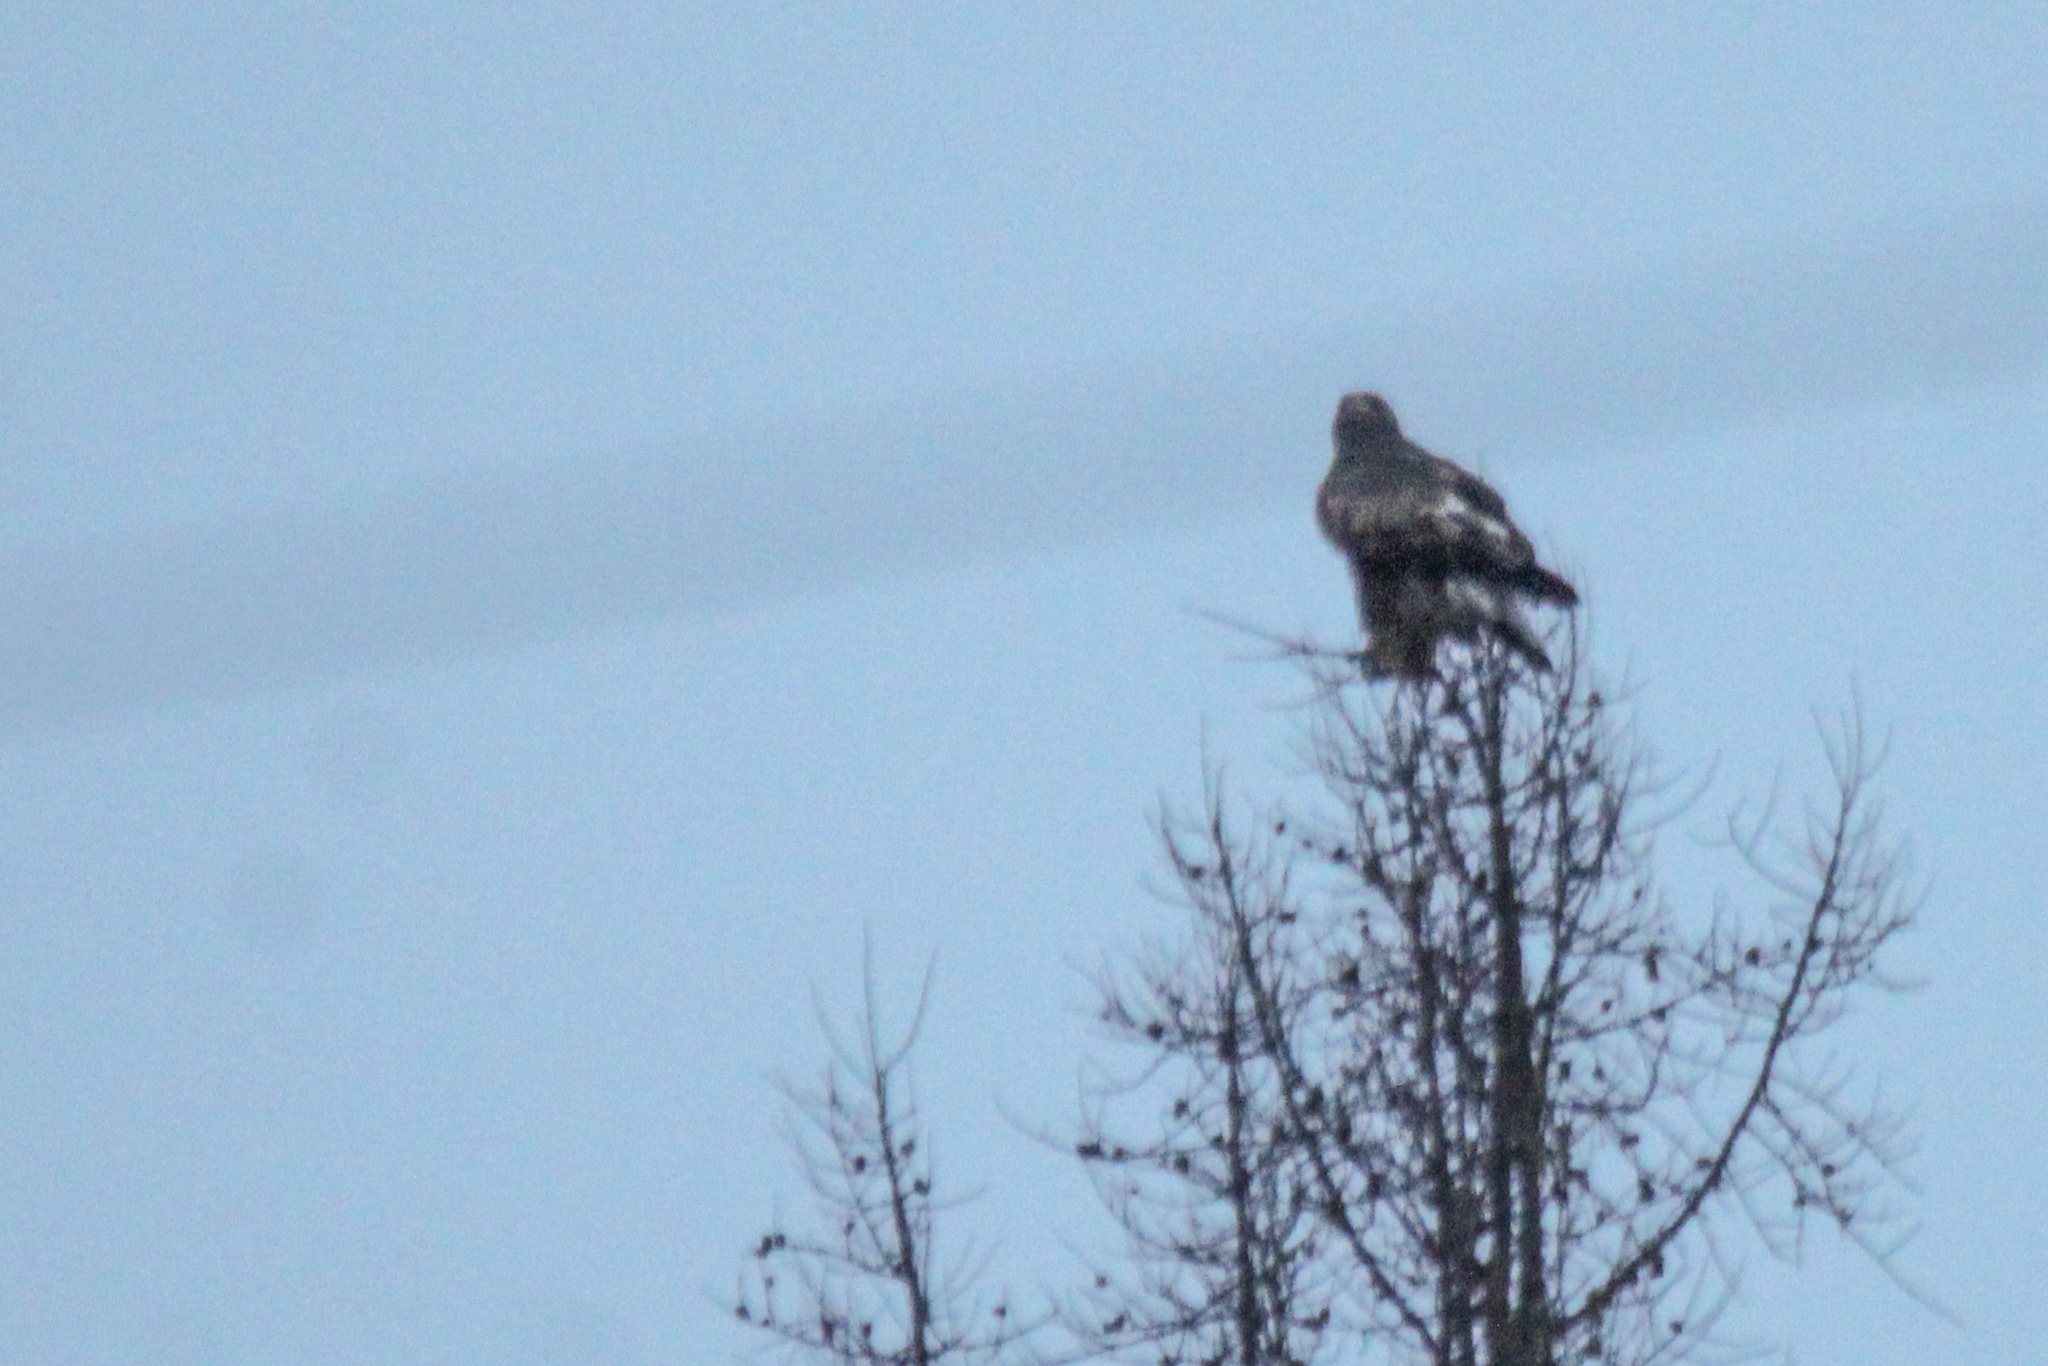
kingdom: Animalia
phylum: Chordata
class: Aves
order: Accipitriformes
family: Accipitridae
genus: Aquila
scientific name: Aquila chrysaetos
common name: Golden eagle
